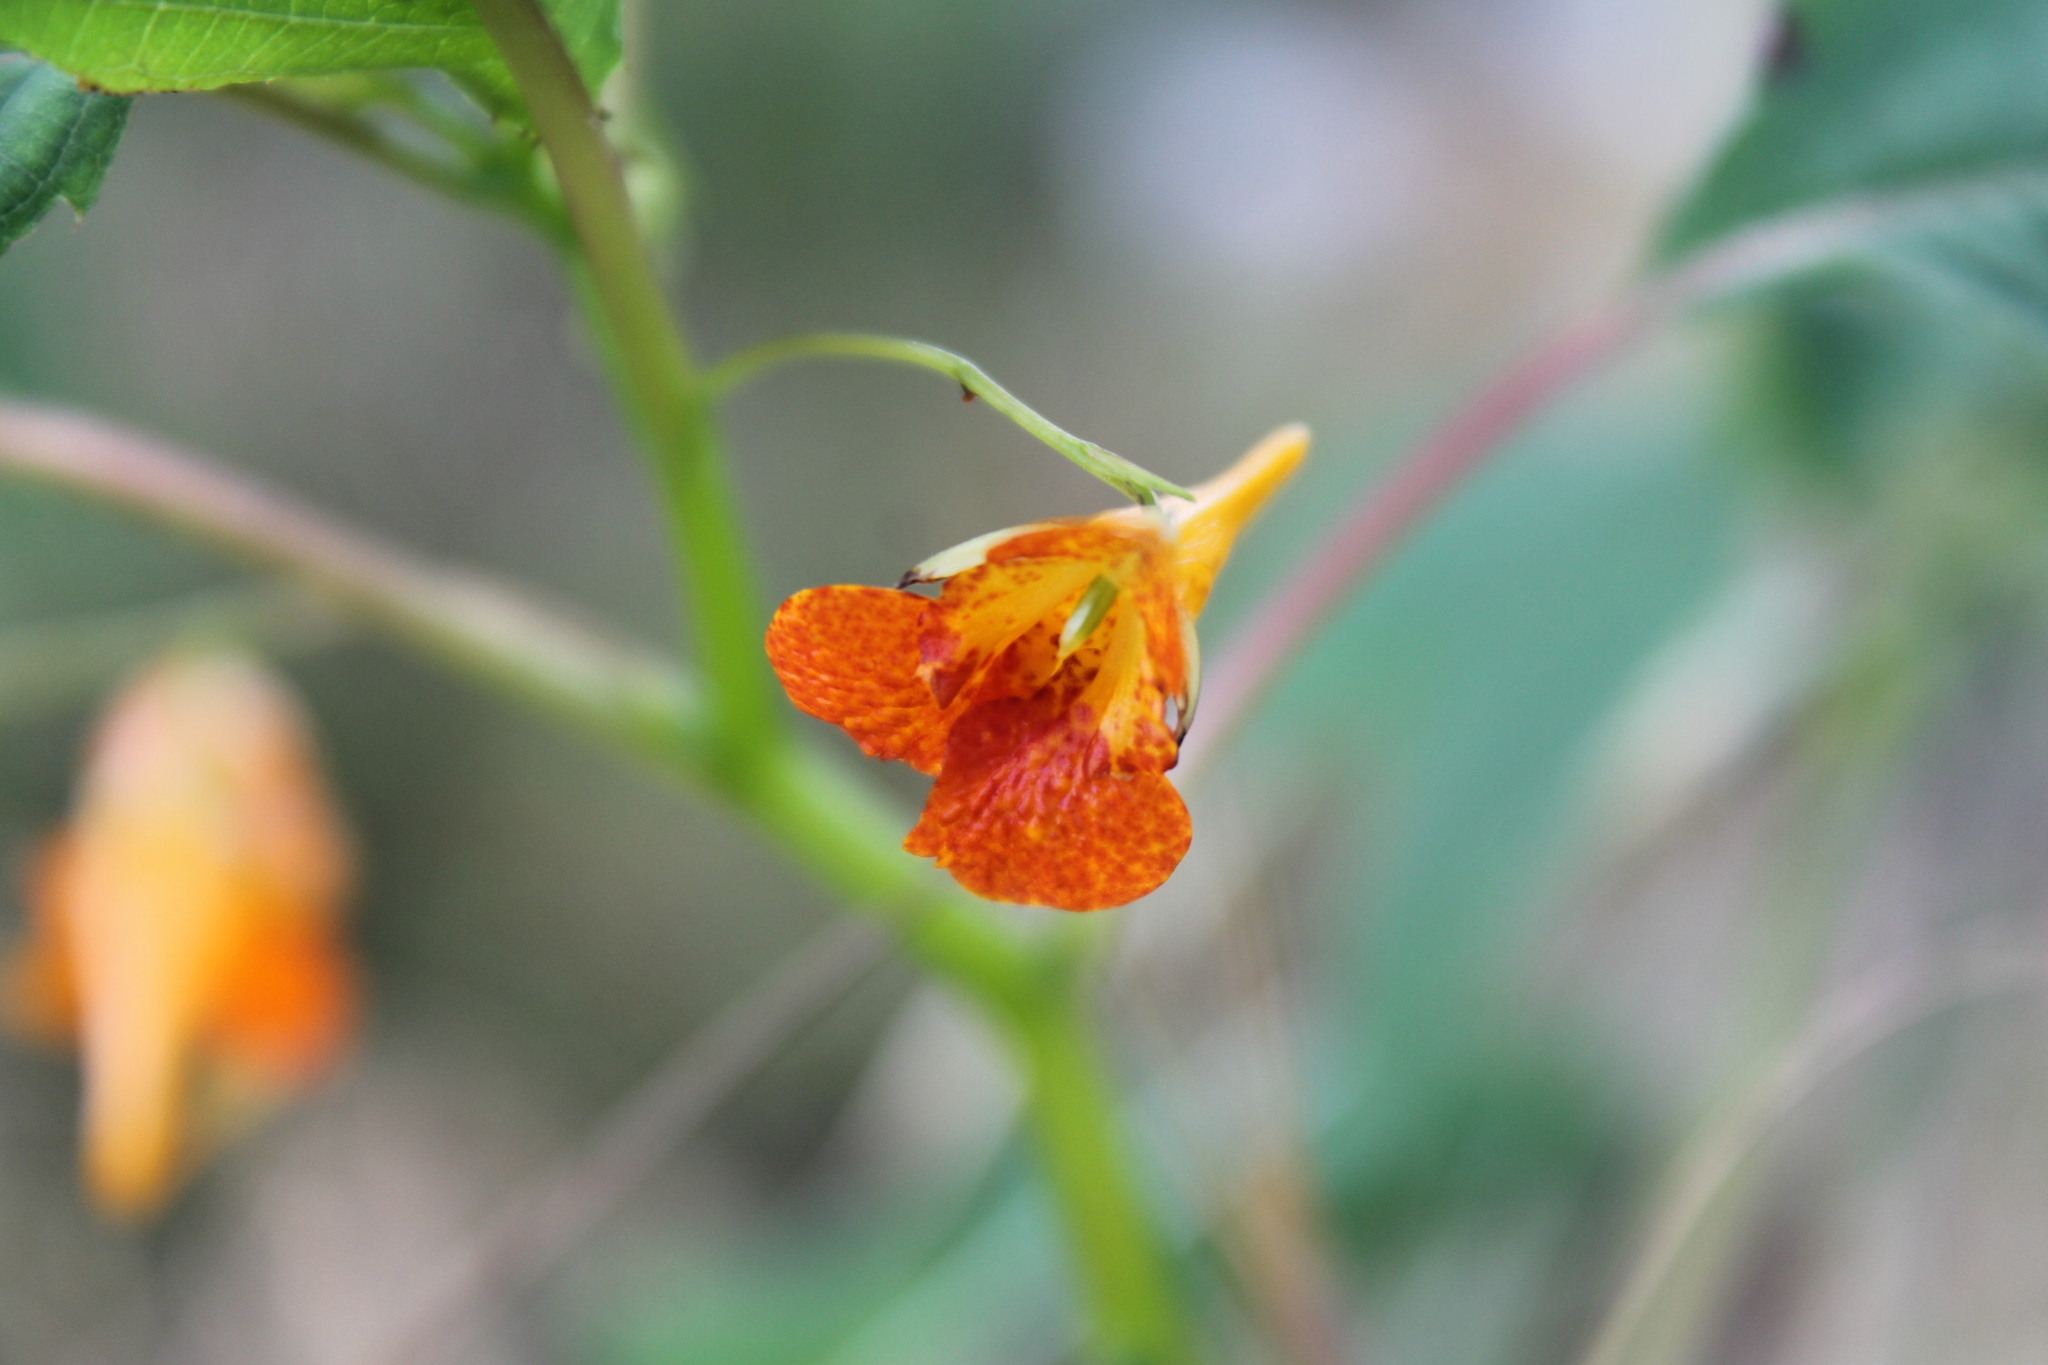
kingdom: Plantae
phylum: Tracheophyta
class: Magnoliopsida
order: Ericales
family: Balsaminaceae
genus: Impatiens
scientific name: Impatiens capensis
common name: Orange balsam
